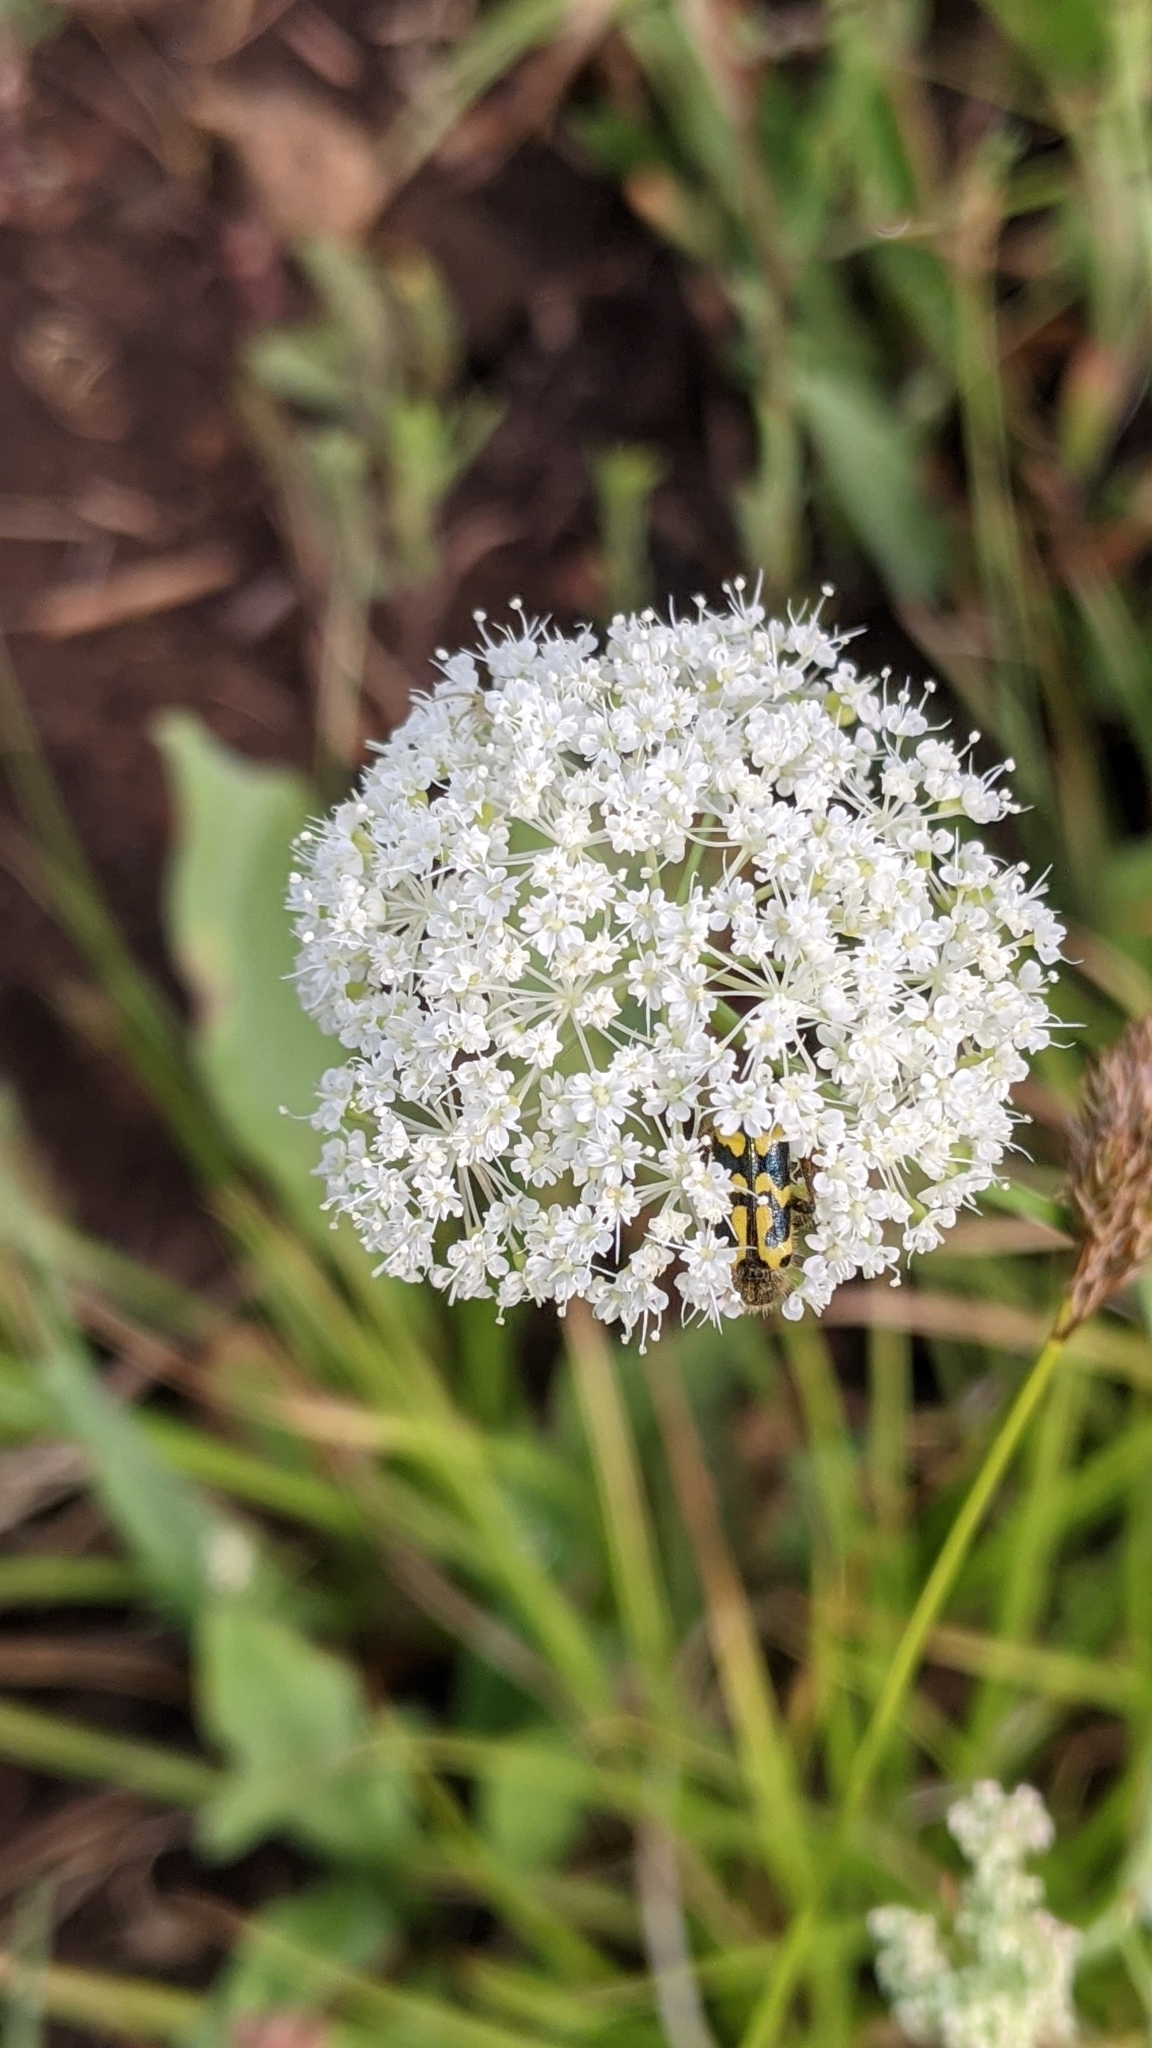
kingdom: Animalia
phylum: Arthropoda
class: Insecta
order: Coleoptera
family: Cleridae
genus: Trichodes
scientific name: Trichodes ornatus
